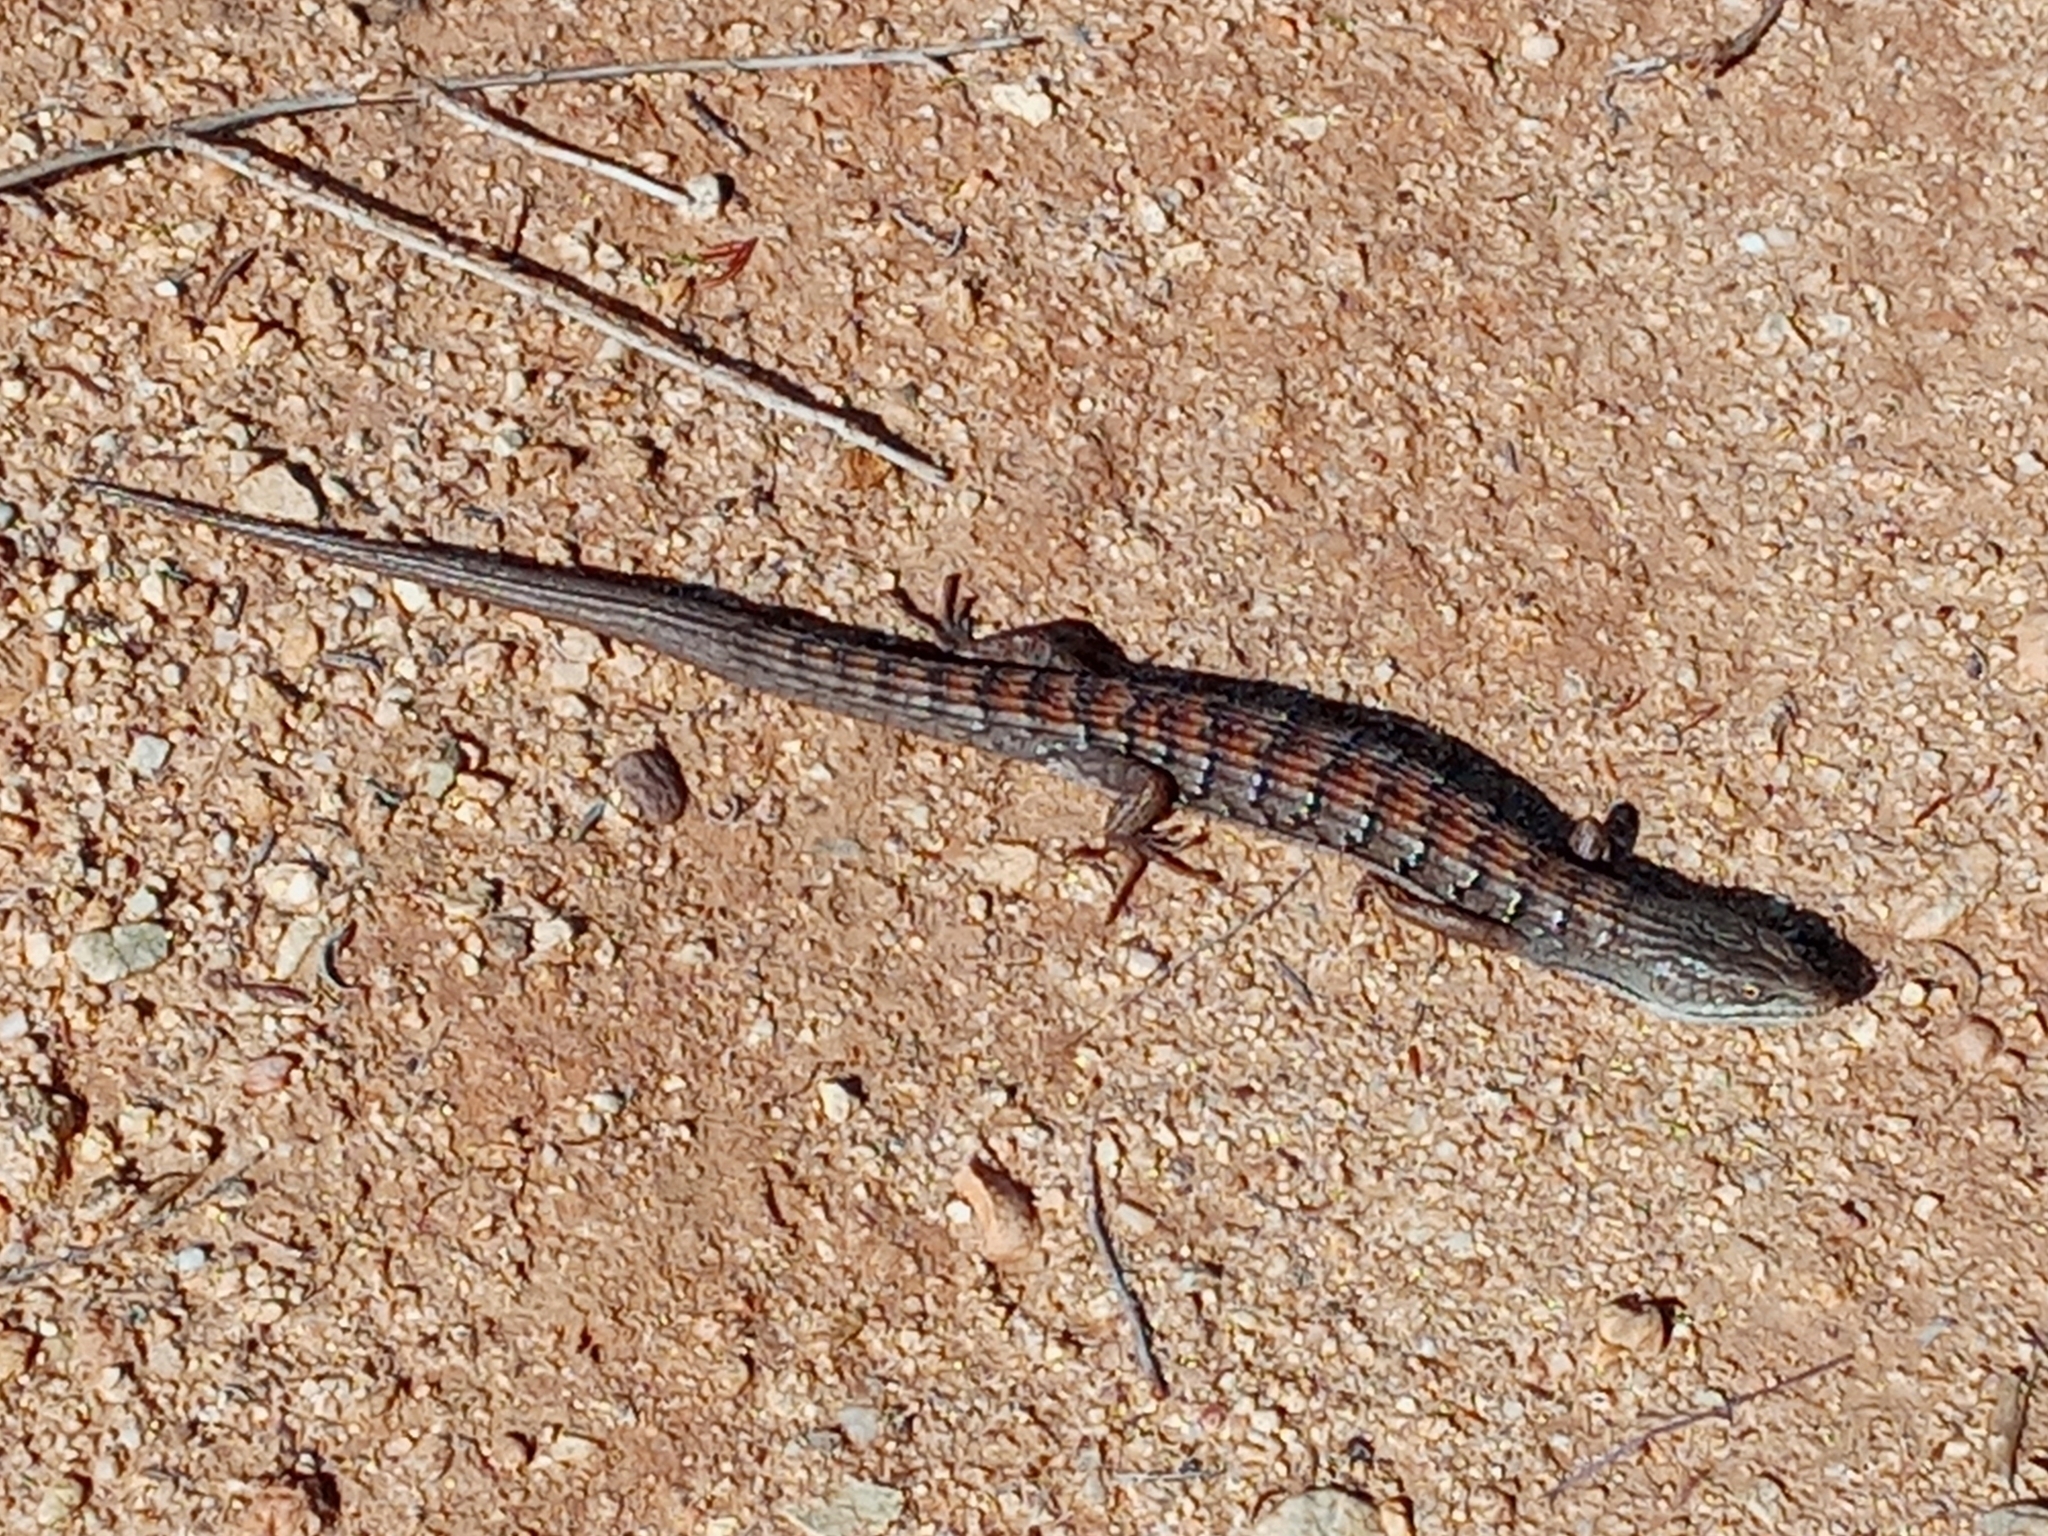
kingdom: Animalia
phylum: Chordata
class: Squamata
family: Anguidae
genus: Elgaria
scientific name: Elgaria multicarinata
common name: Southern alligator lizard
